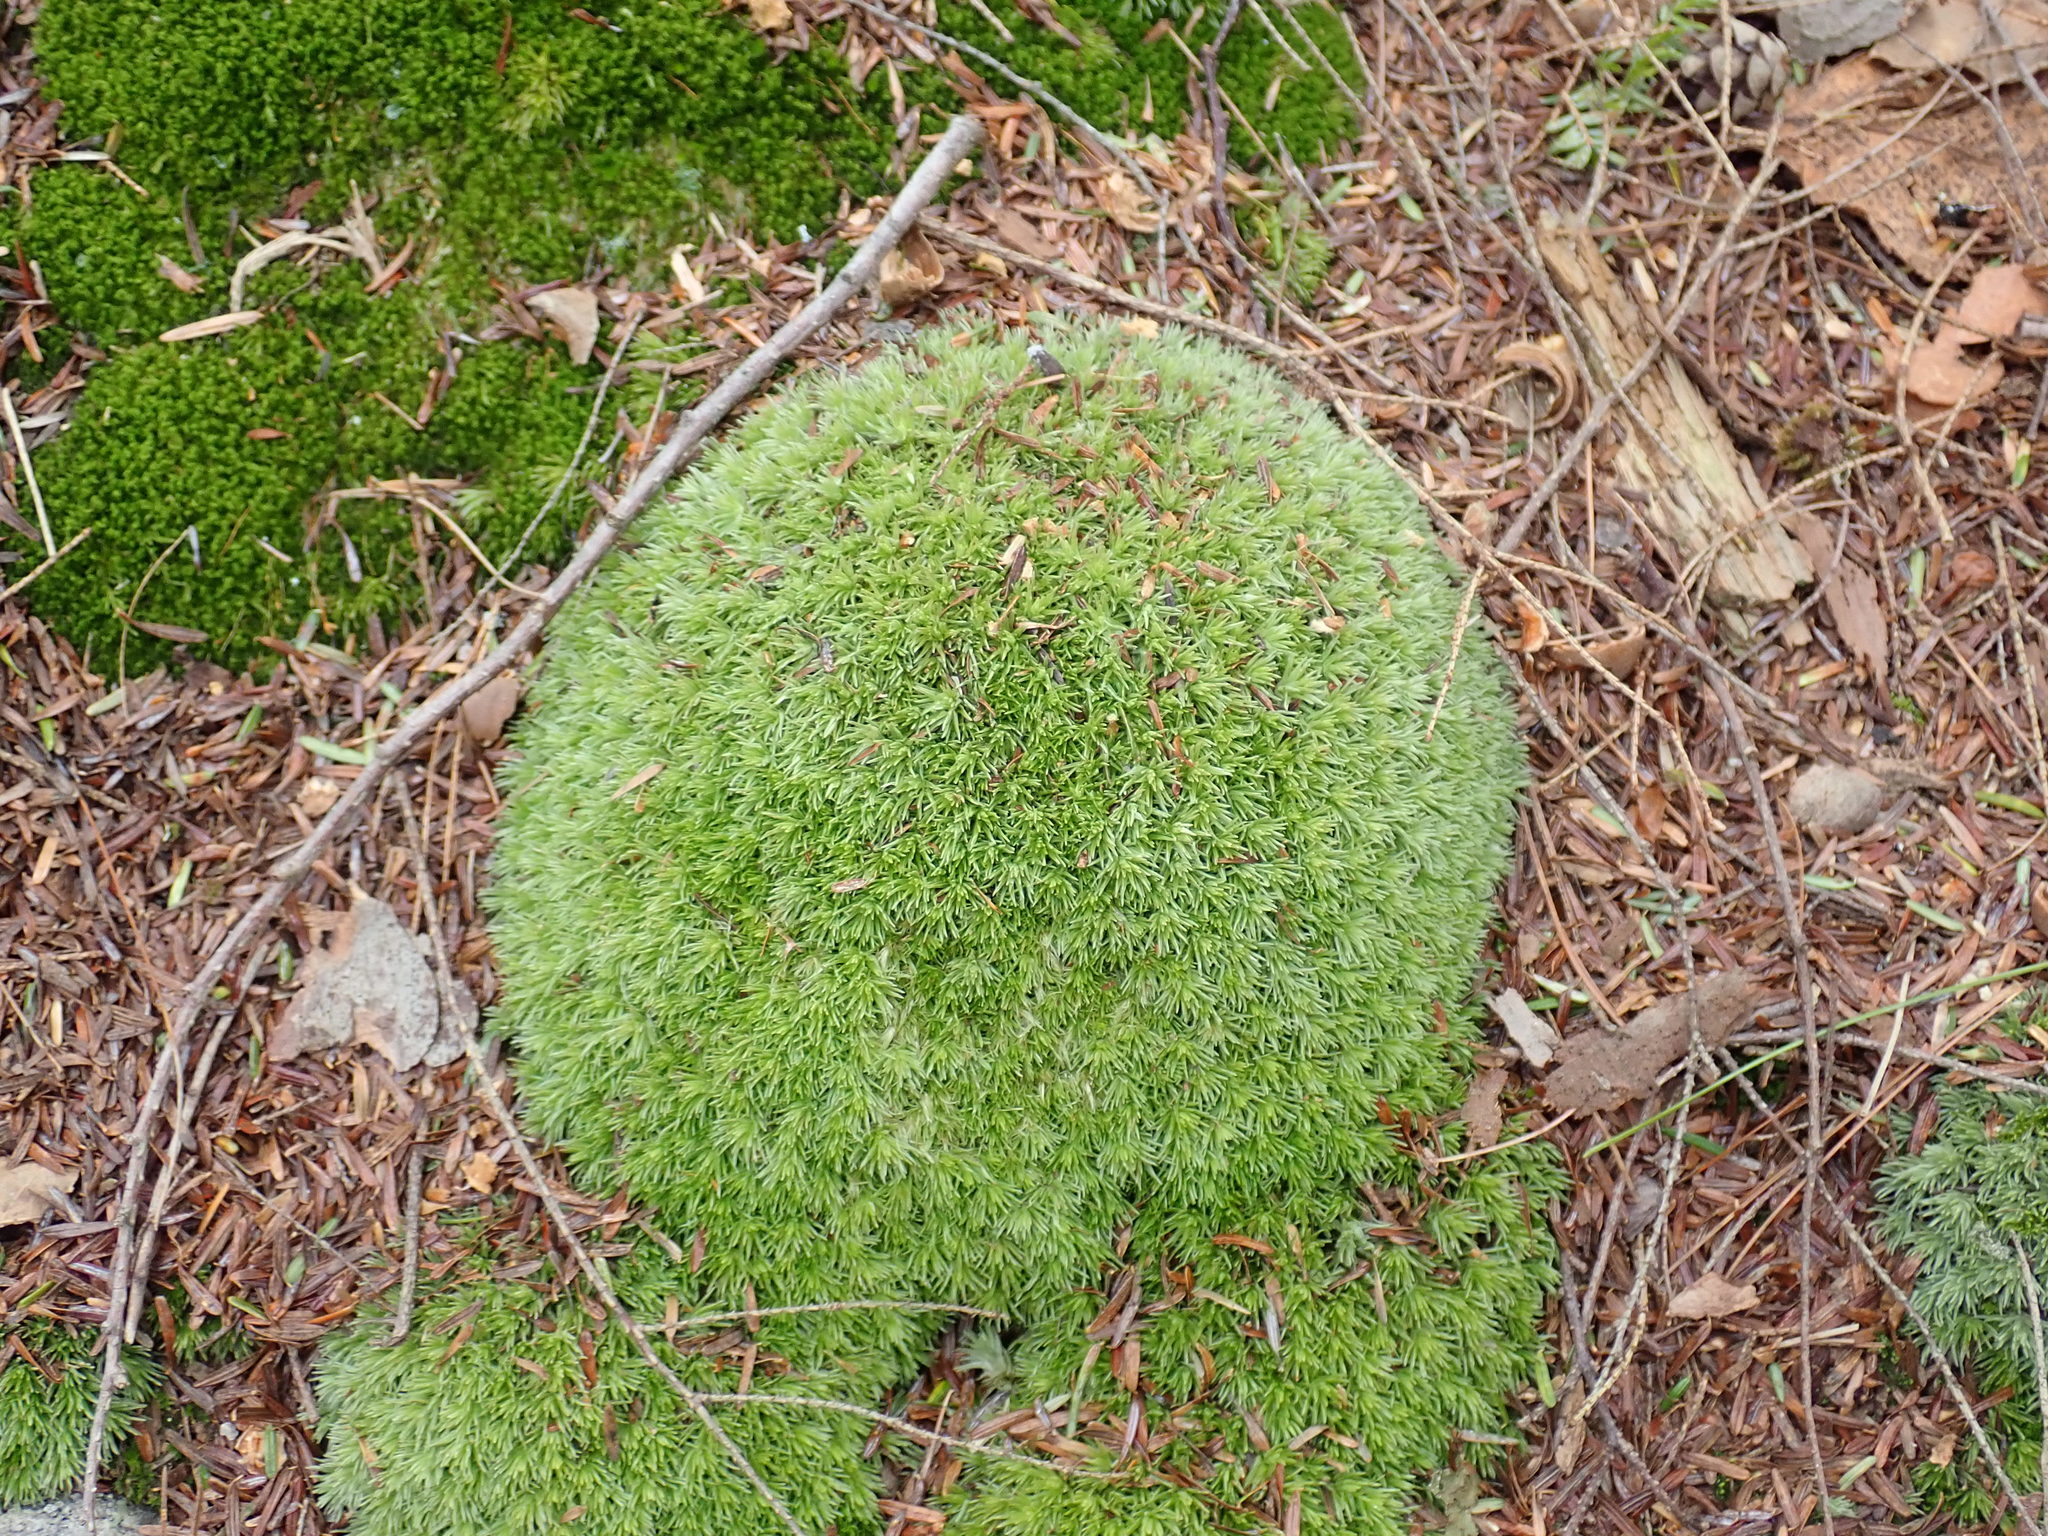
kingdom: Plantae
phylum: Bryophyta
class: Bryopsida
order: Dicranales
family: Leucobryaceae
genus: Leucobryum
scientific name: Leucobryum
